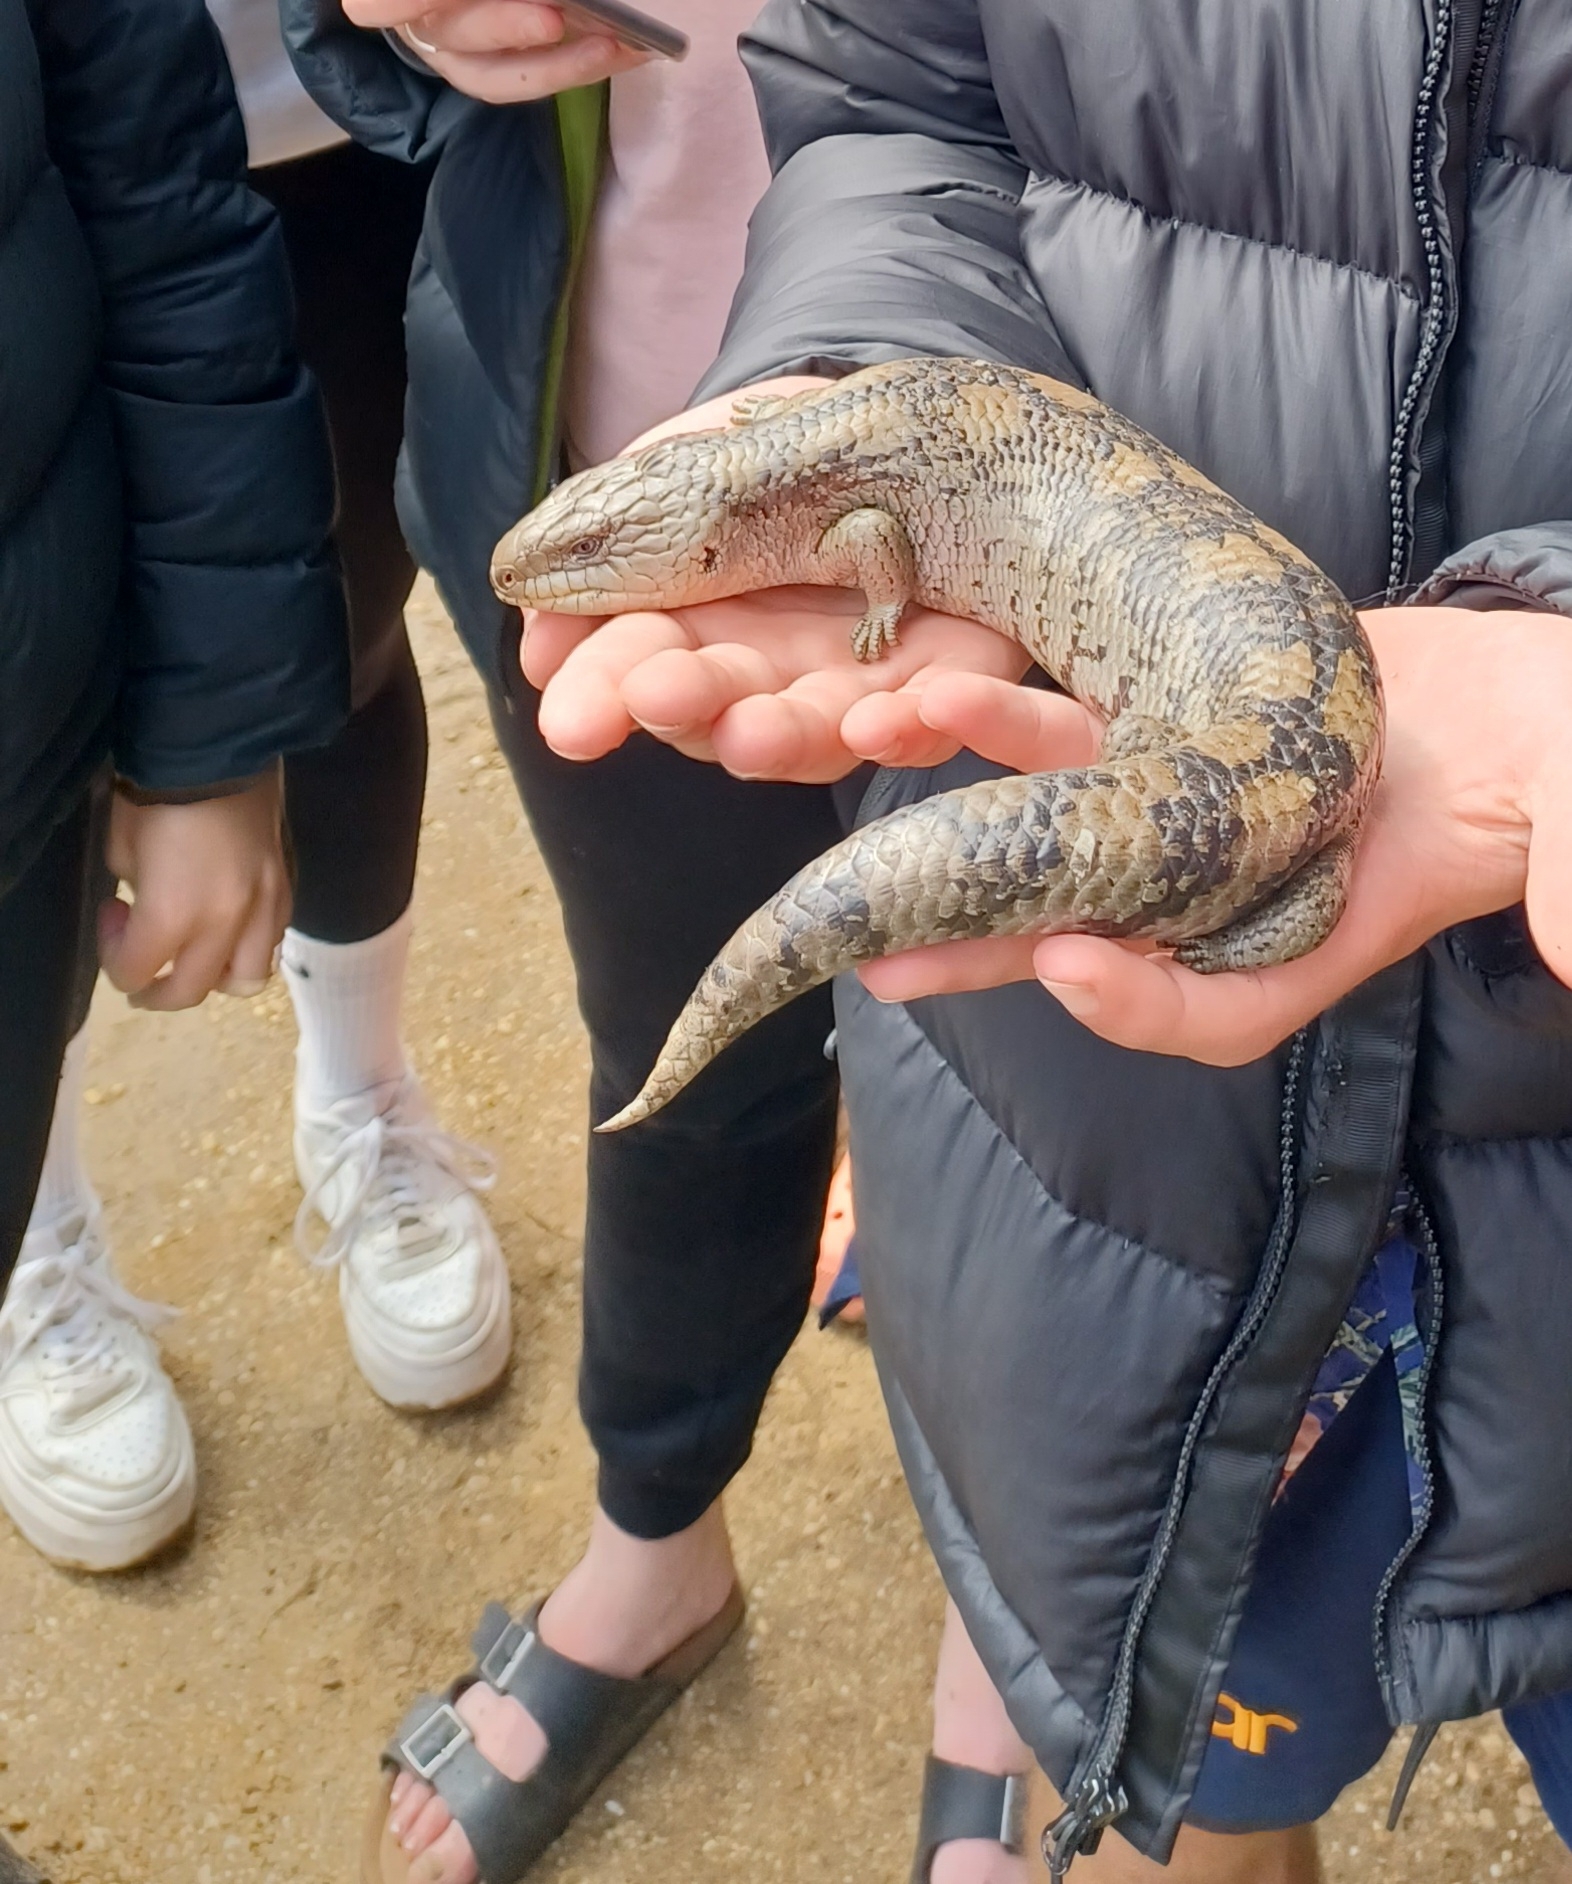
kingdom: Animalia
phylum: Chordata
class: Squamata
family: Scincidae
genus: Tiliqua
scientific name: Tiliqua nigrolutea
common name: Blotched blue-tongued lizard
